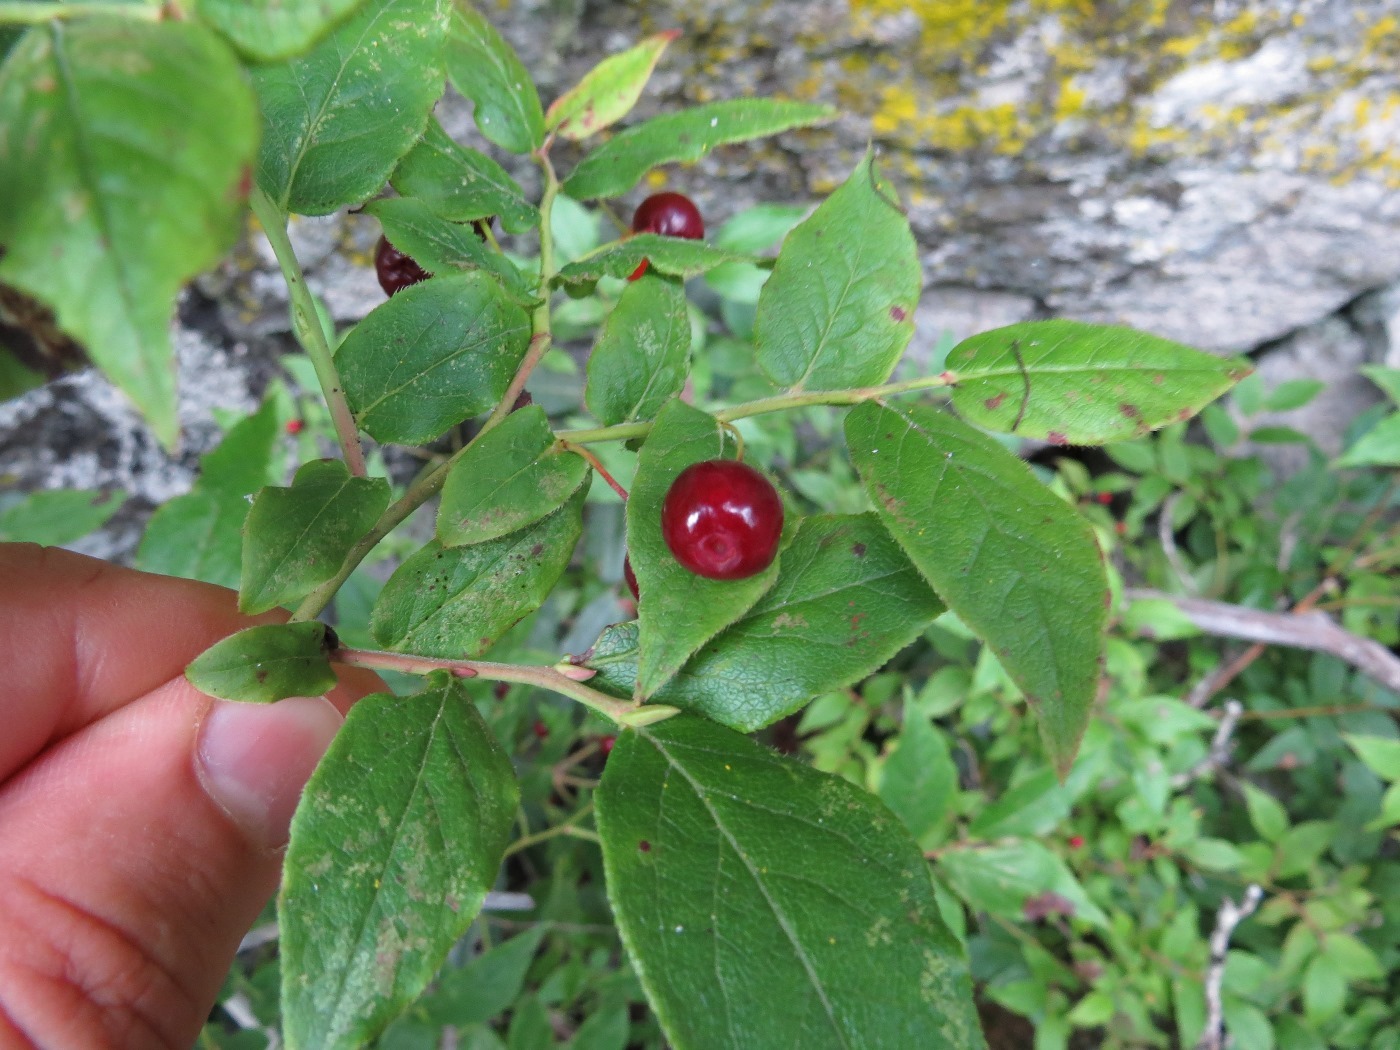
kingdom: Plantae
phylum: Tracheophyta
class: Magnoliopsida
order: Ericales
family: Ericaceae
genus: Vaccinium
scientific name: Vaccinium erythrocarpum
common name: Bearberry
